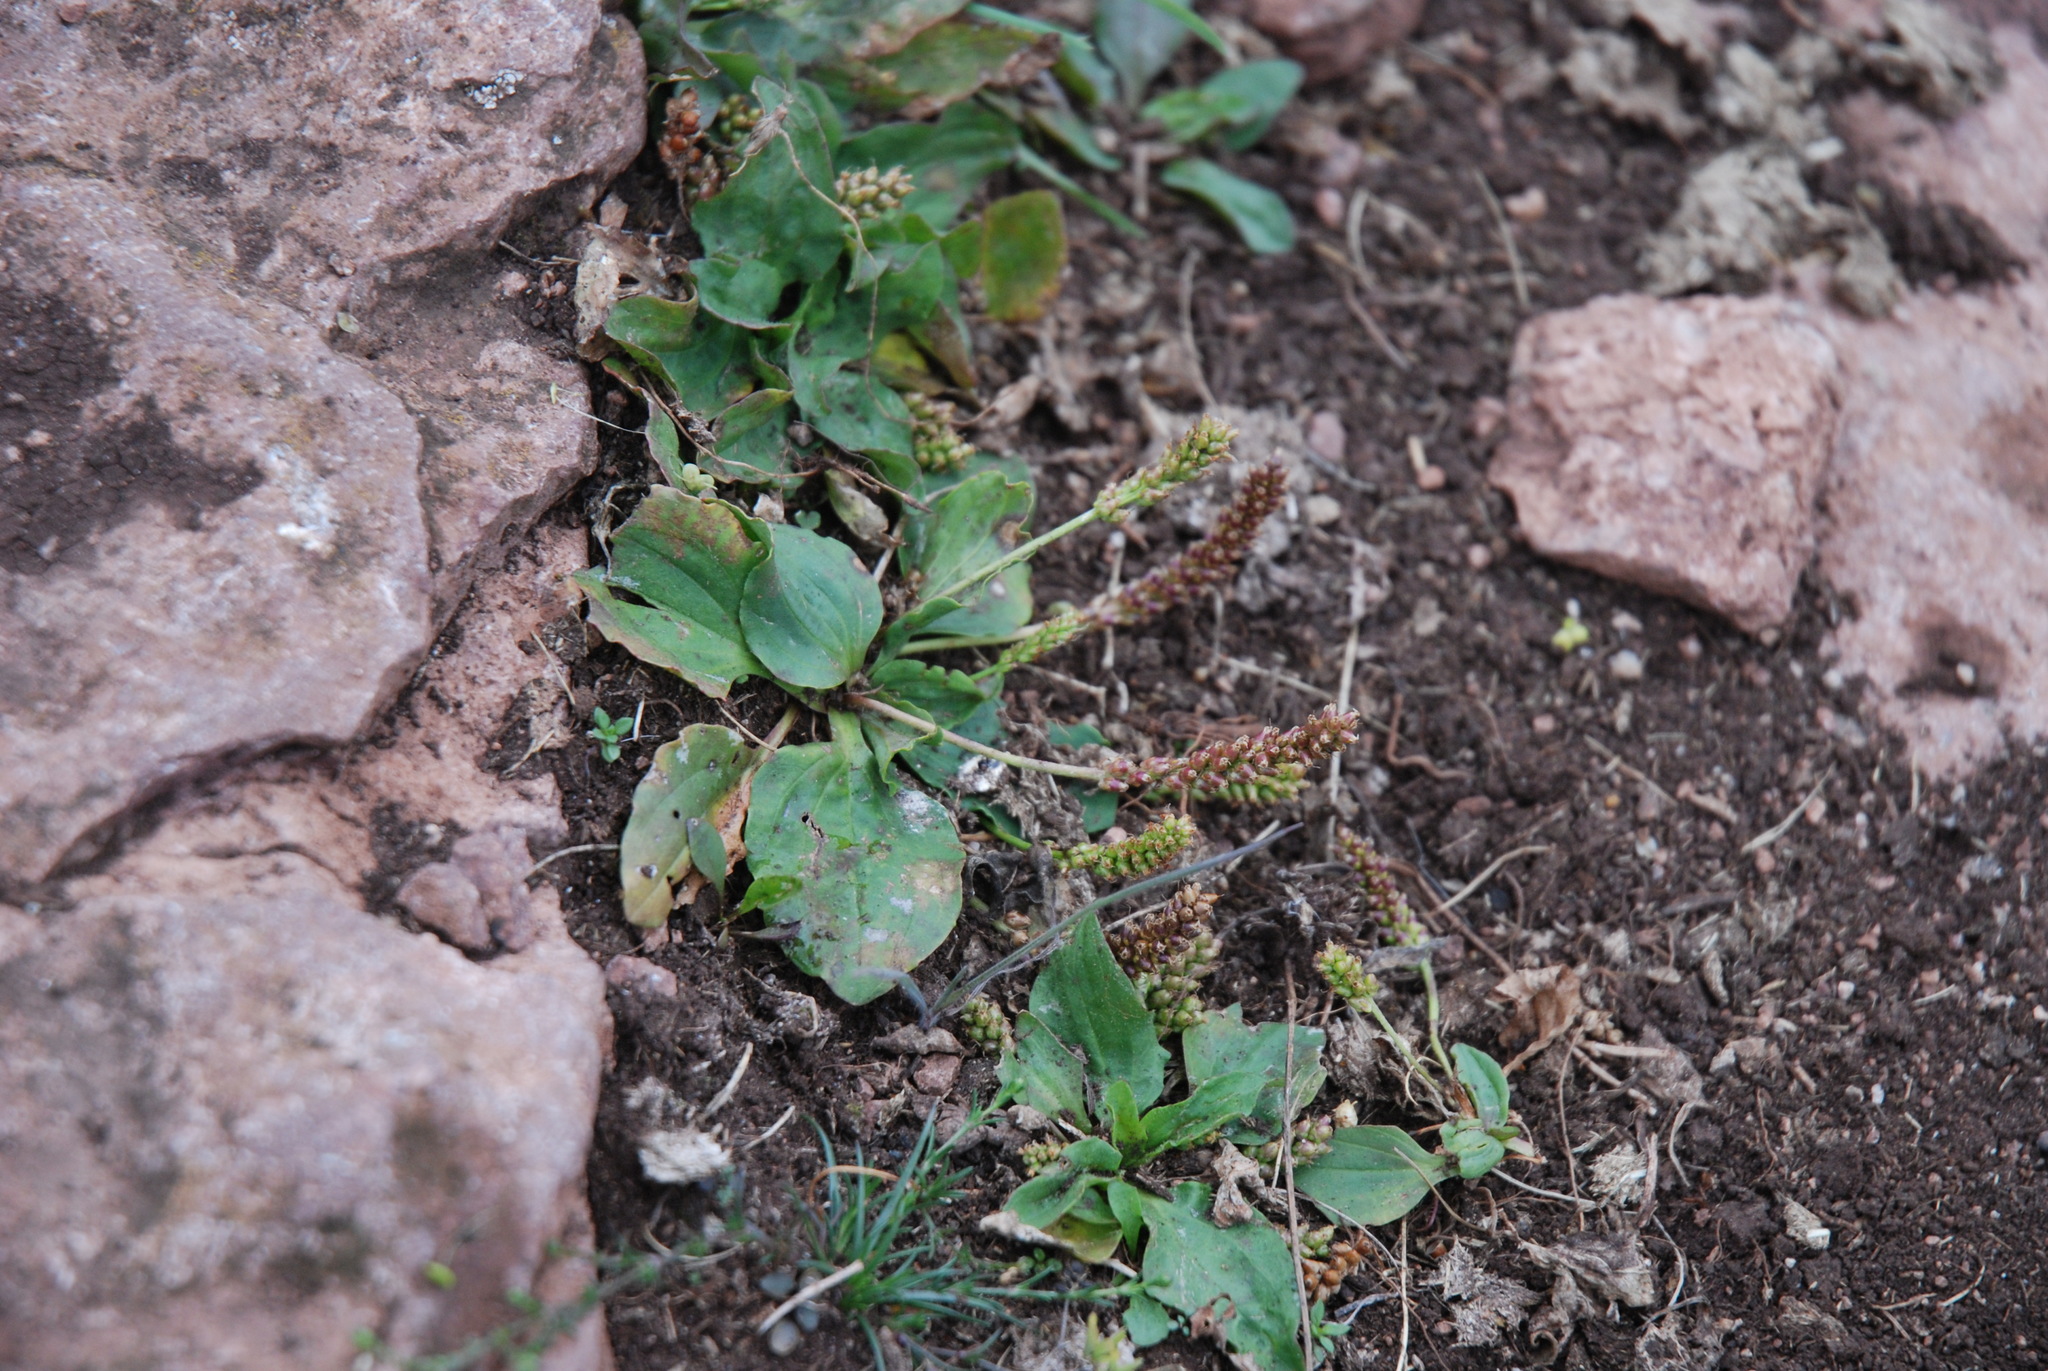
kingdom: Plantae
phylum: Tracheophyta
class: Magnoliopsida
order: Lamiales
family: Plantaginaceae
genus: Plantago
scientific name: Plantago major
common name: Common plantain
